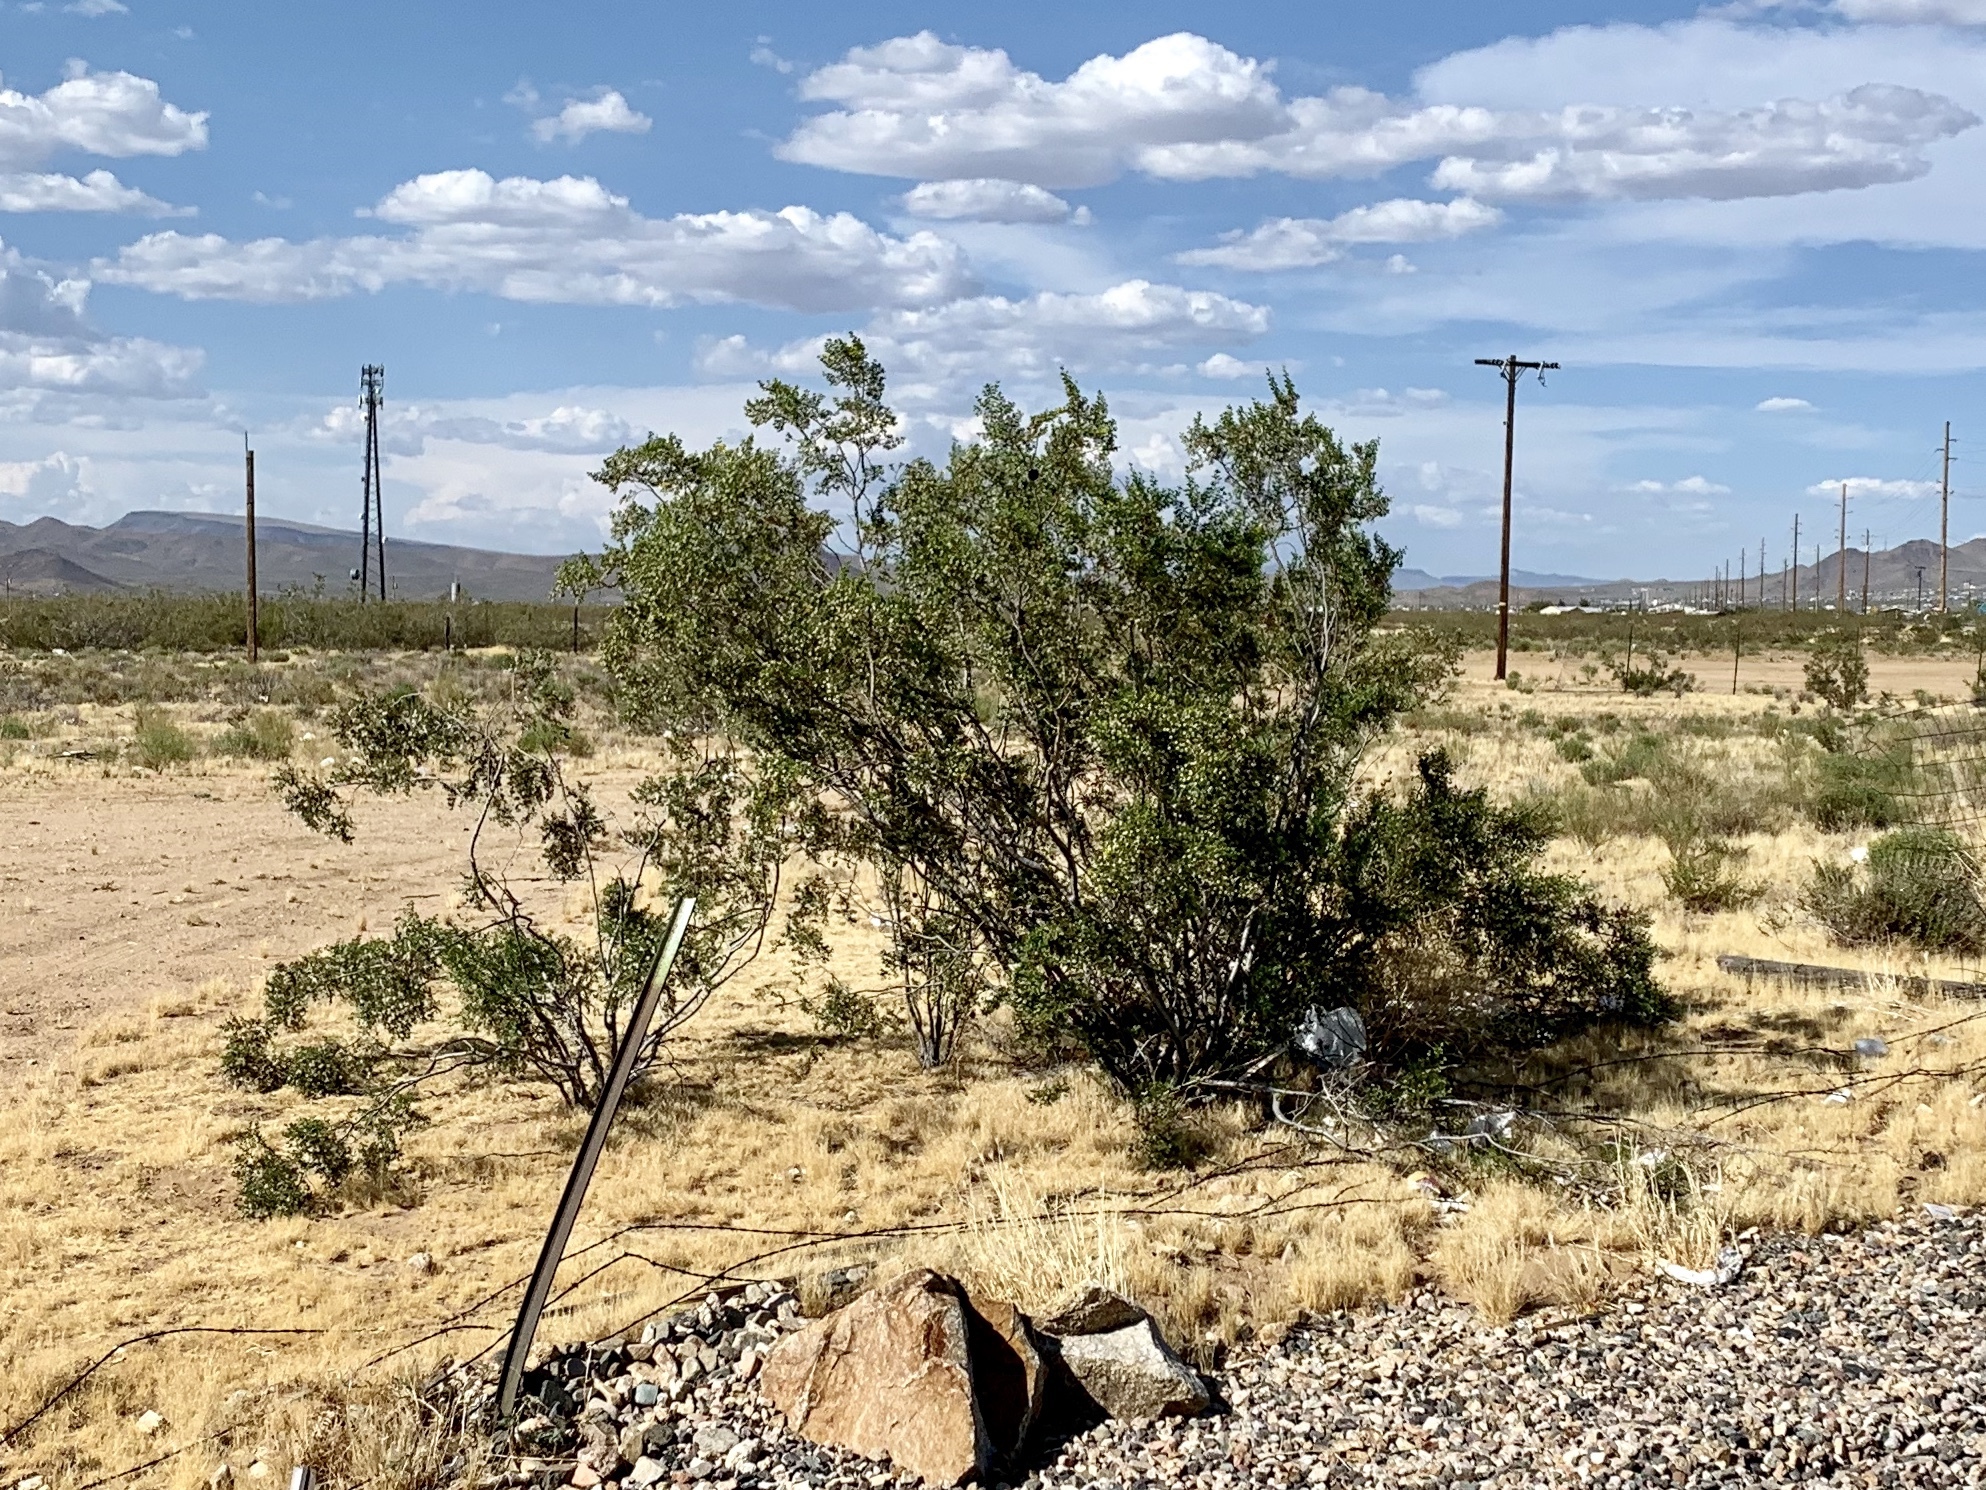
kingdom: Plantae
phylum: Tracheophyta
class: Magnoliopsida
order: Zygophyllales
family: Zygophyllaceae
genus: Larrea
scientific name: Larrea tridentata
